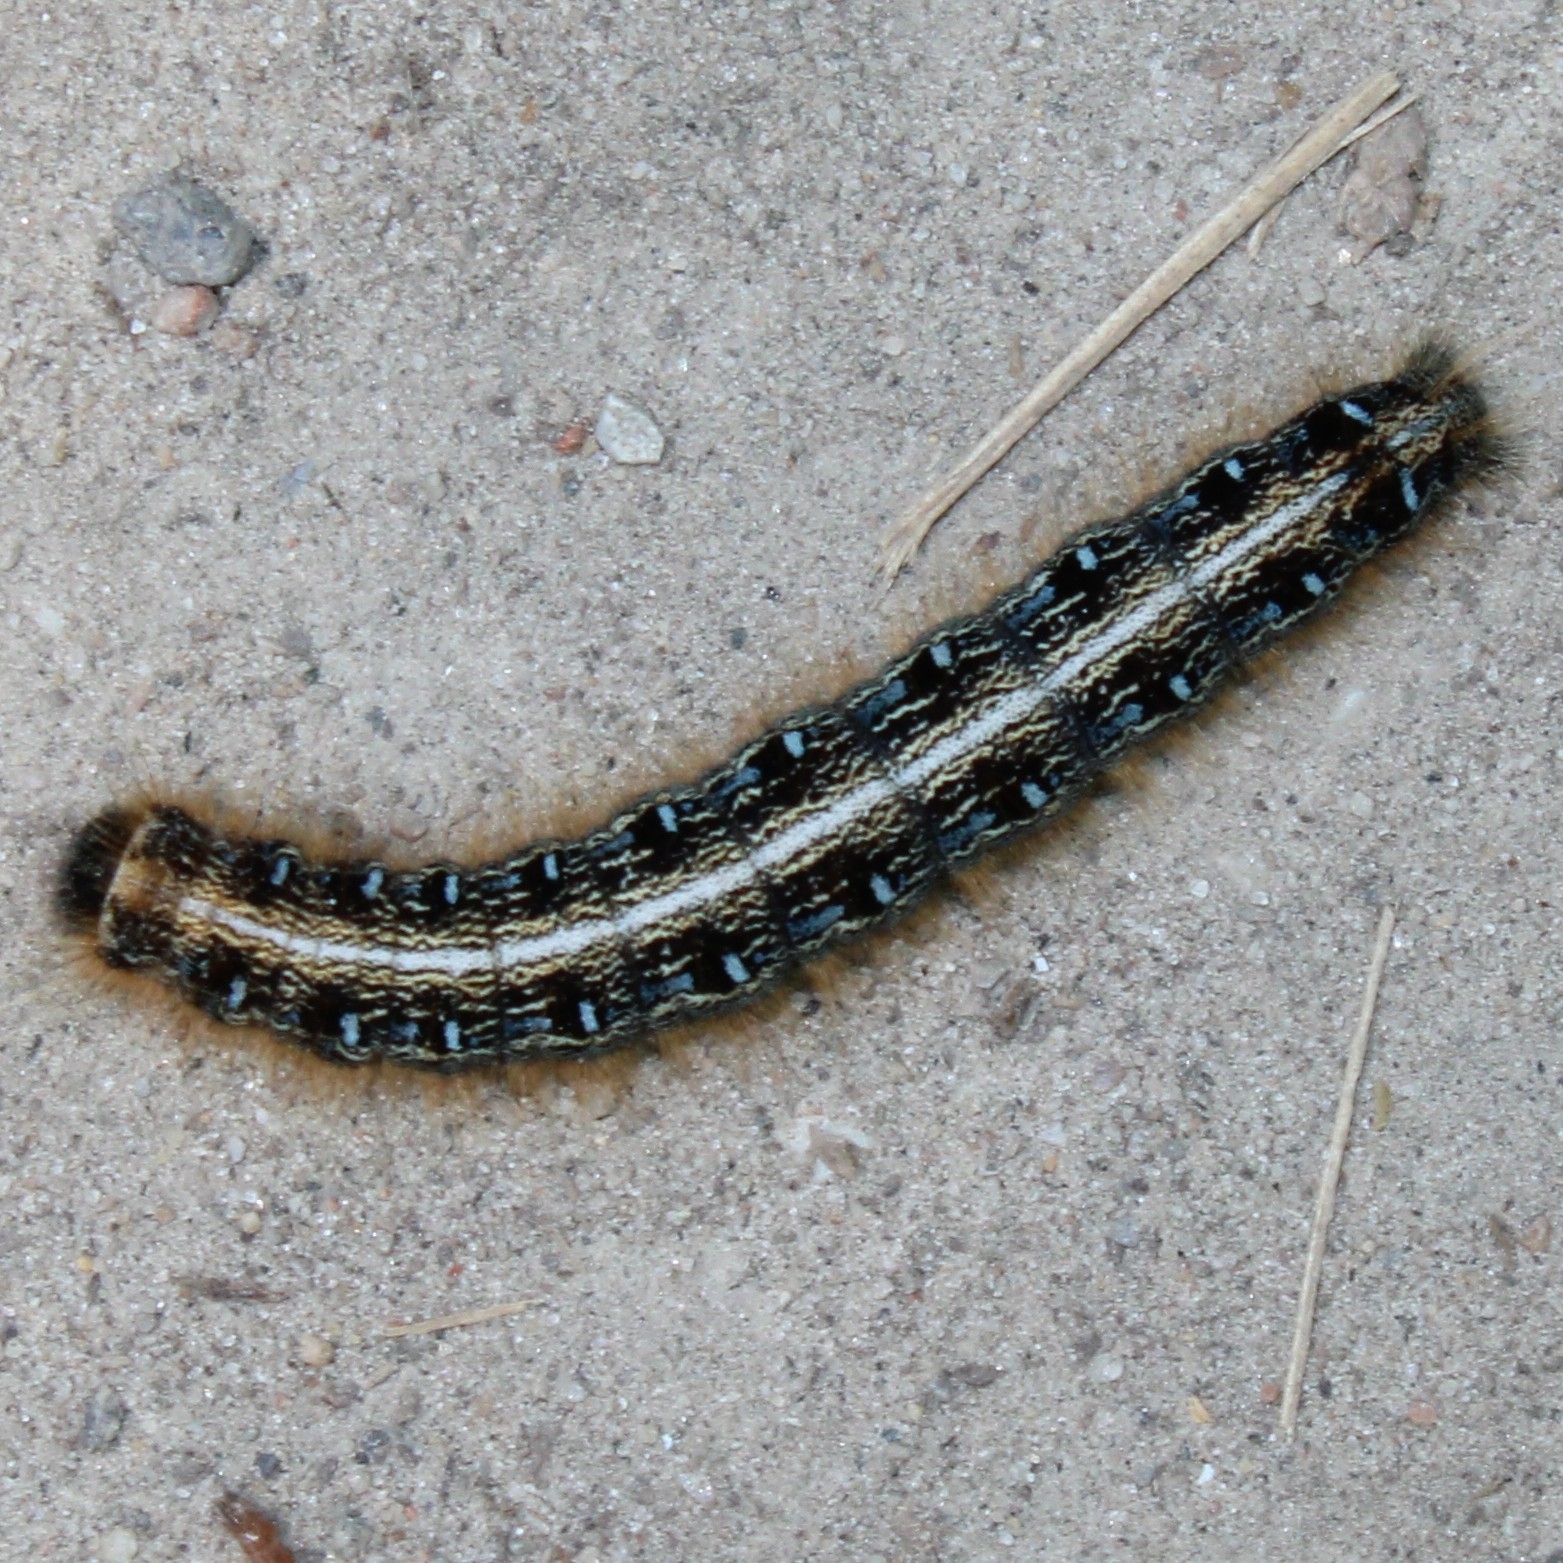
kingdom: Animalia
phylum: Arthropoda
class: Insecta
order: Lepidoptera
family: Lasiocampidae
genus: Malacosoma
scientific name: Malacosoma americana
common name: Eastern tent caterpillar moth
